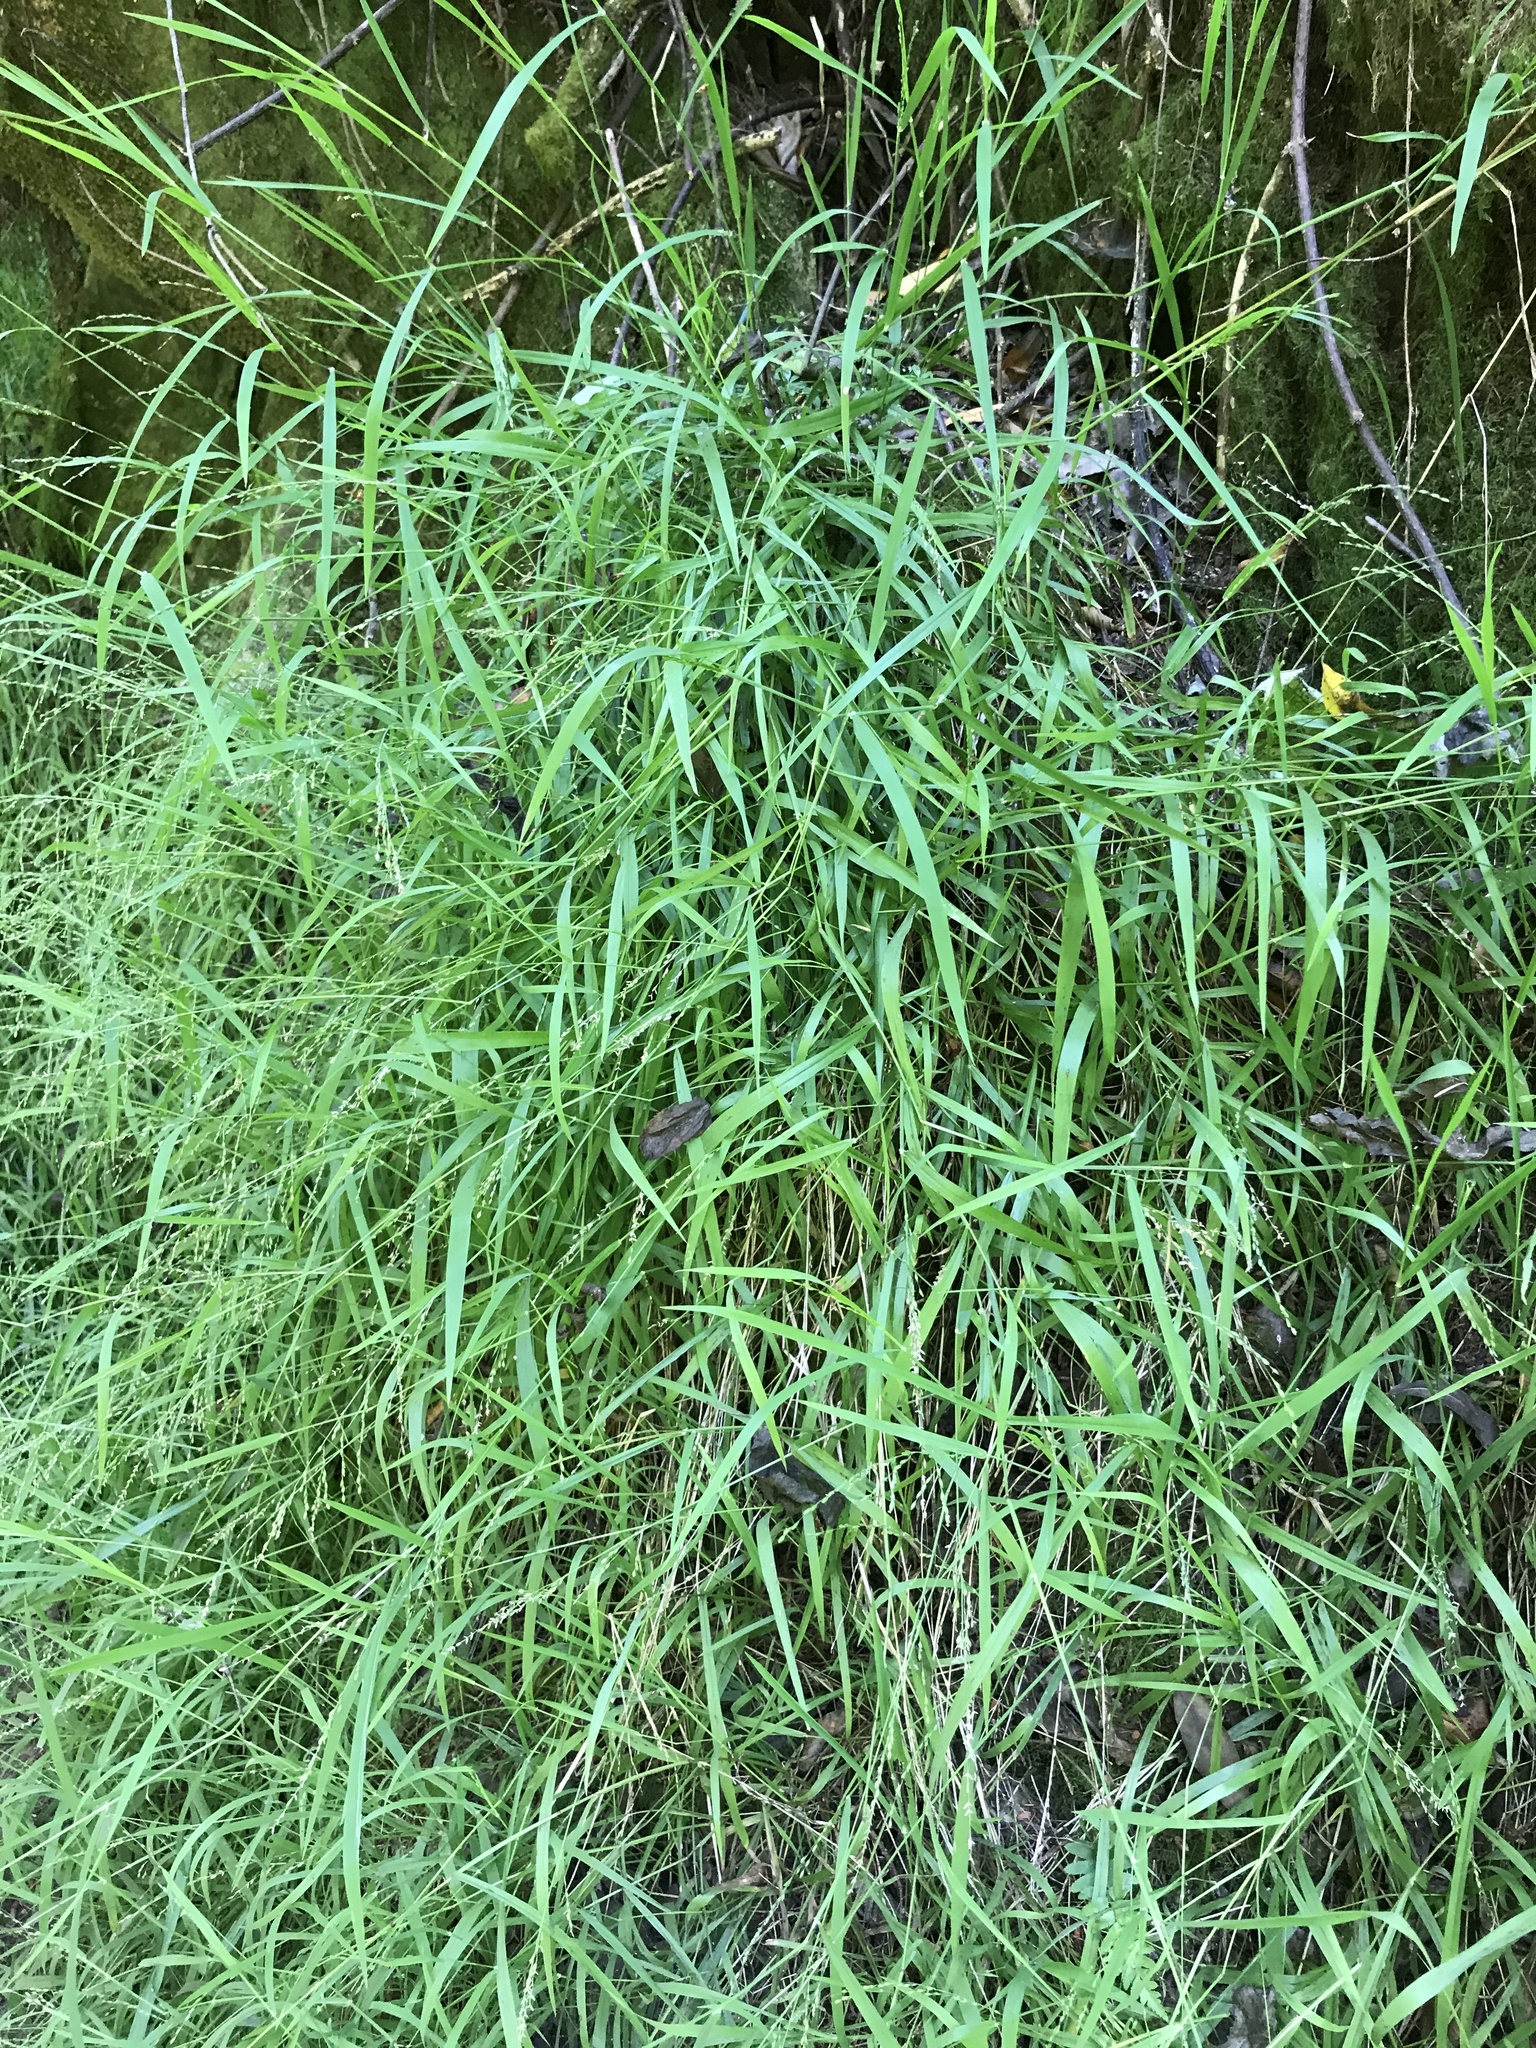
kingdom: Plantae
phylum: Tracheophyta
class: Liliopsida
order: Poales
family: Poaceae
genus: Ehrharta
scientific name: Ehrharta erecta
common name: Panic veldtgrass
